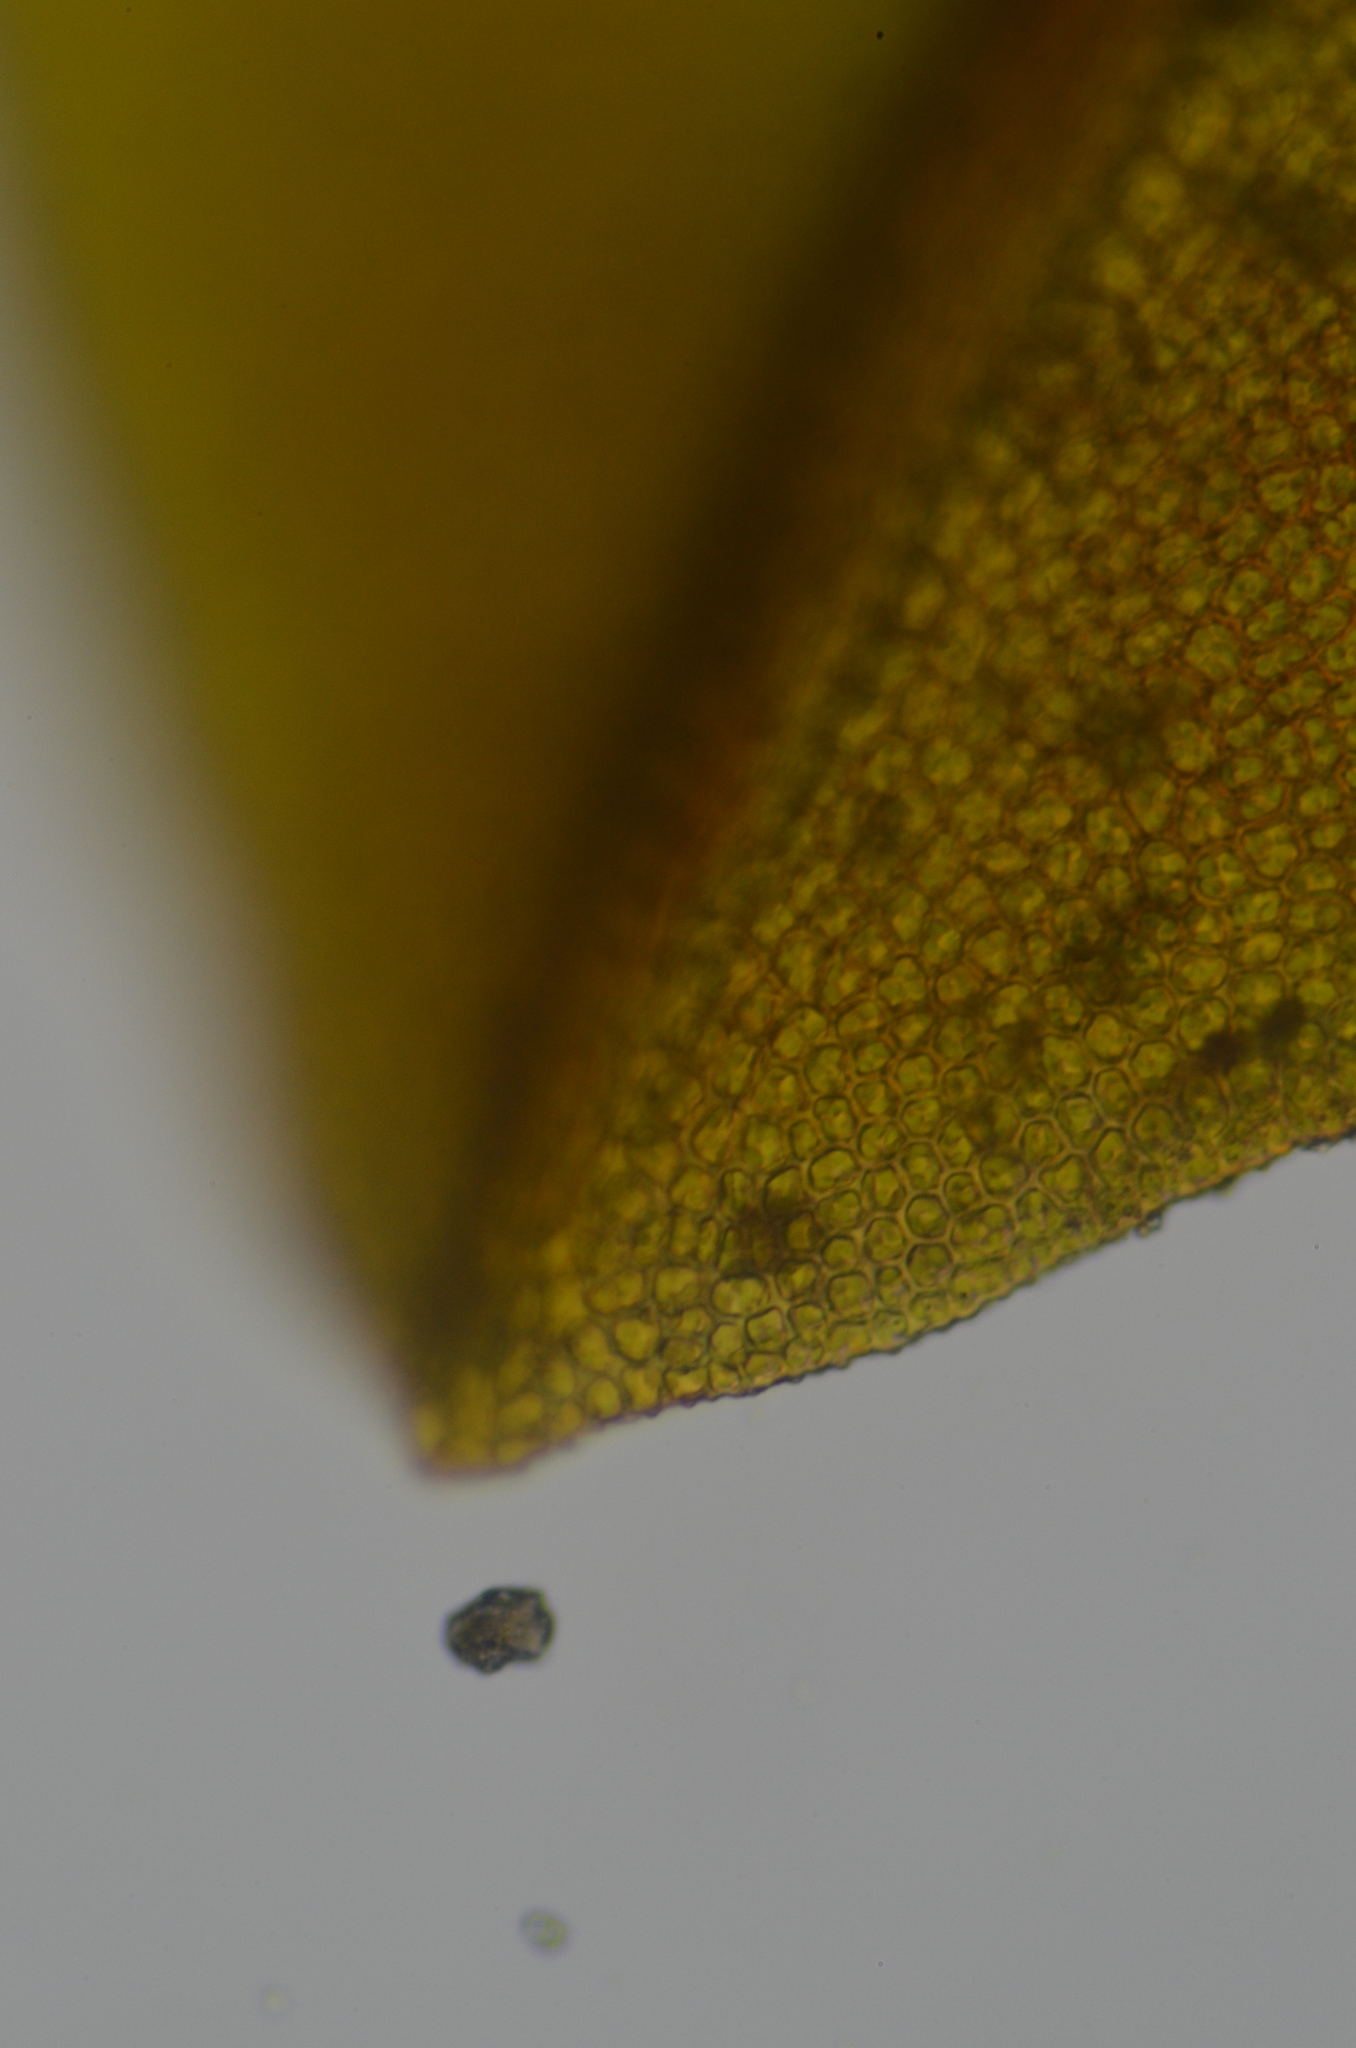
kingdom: Plantae
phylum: Bryophyta
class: Bryopsida
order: Pottiales
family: Pottiaceae
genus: Tortula
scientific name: Tortula bolanderi
